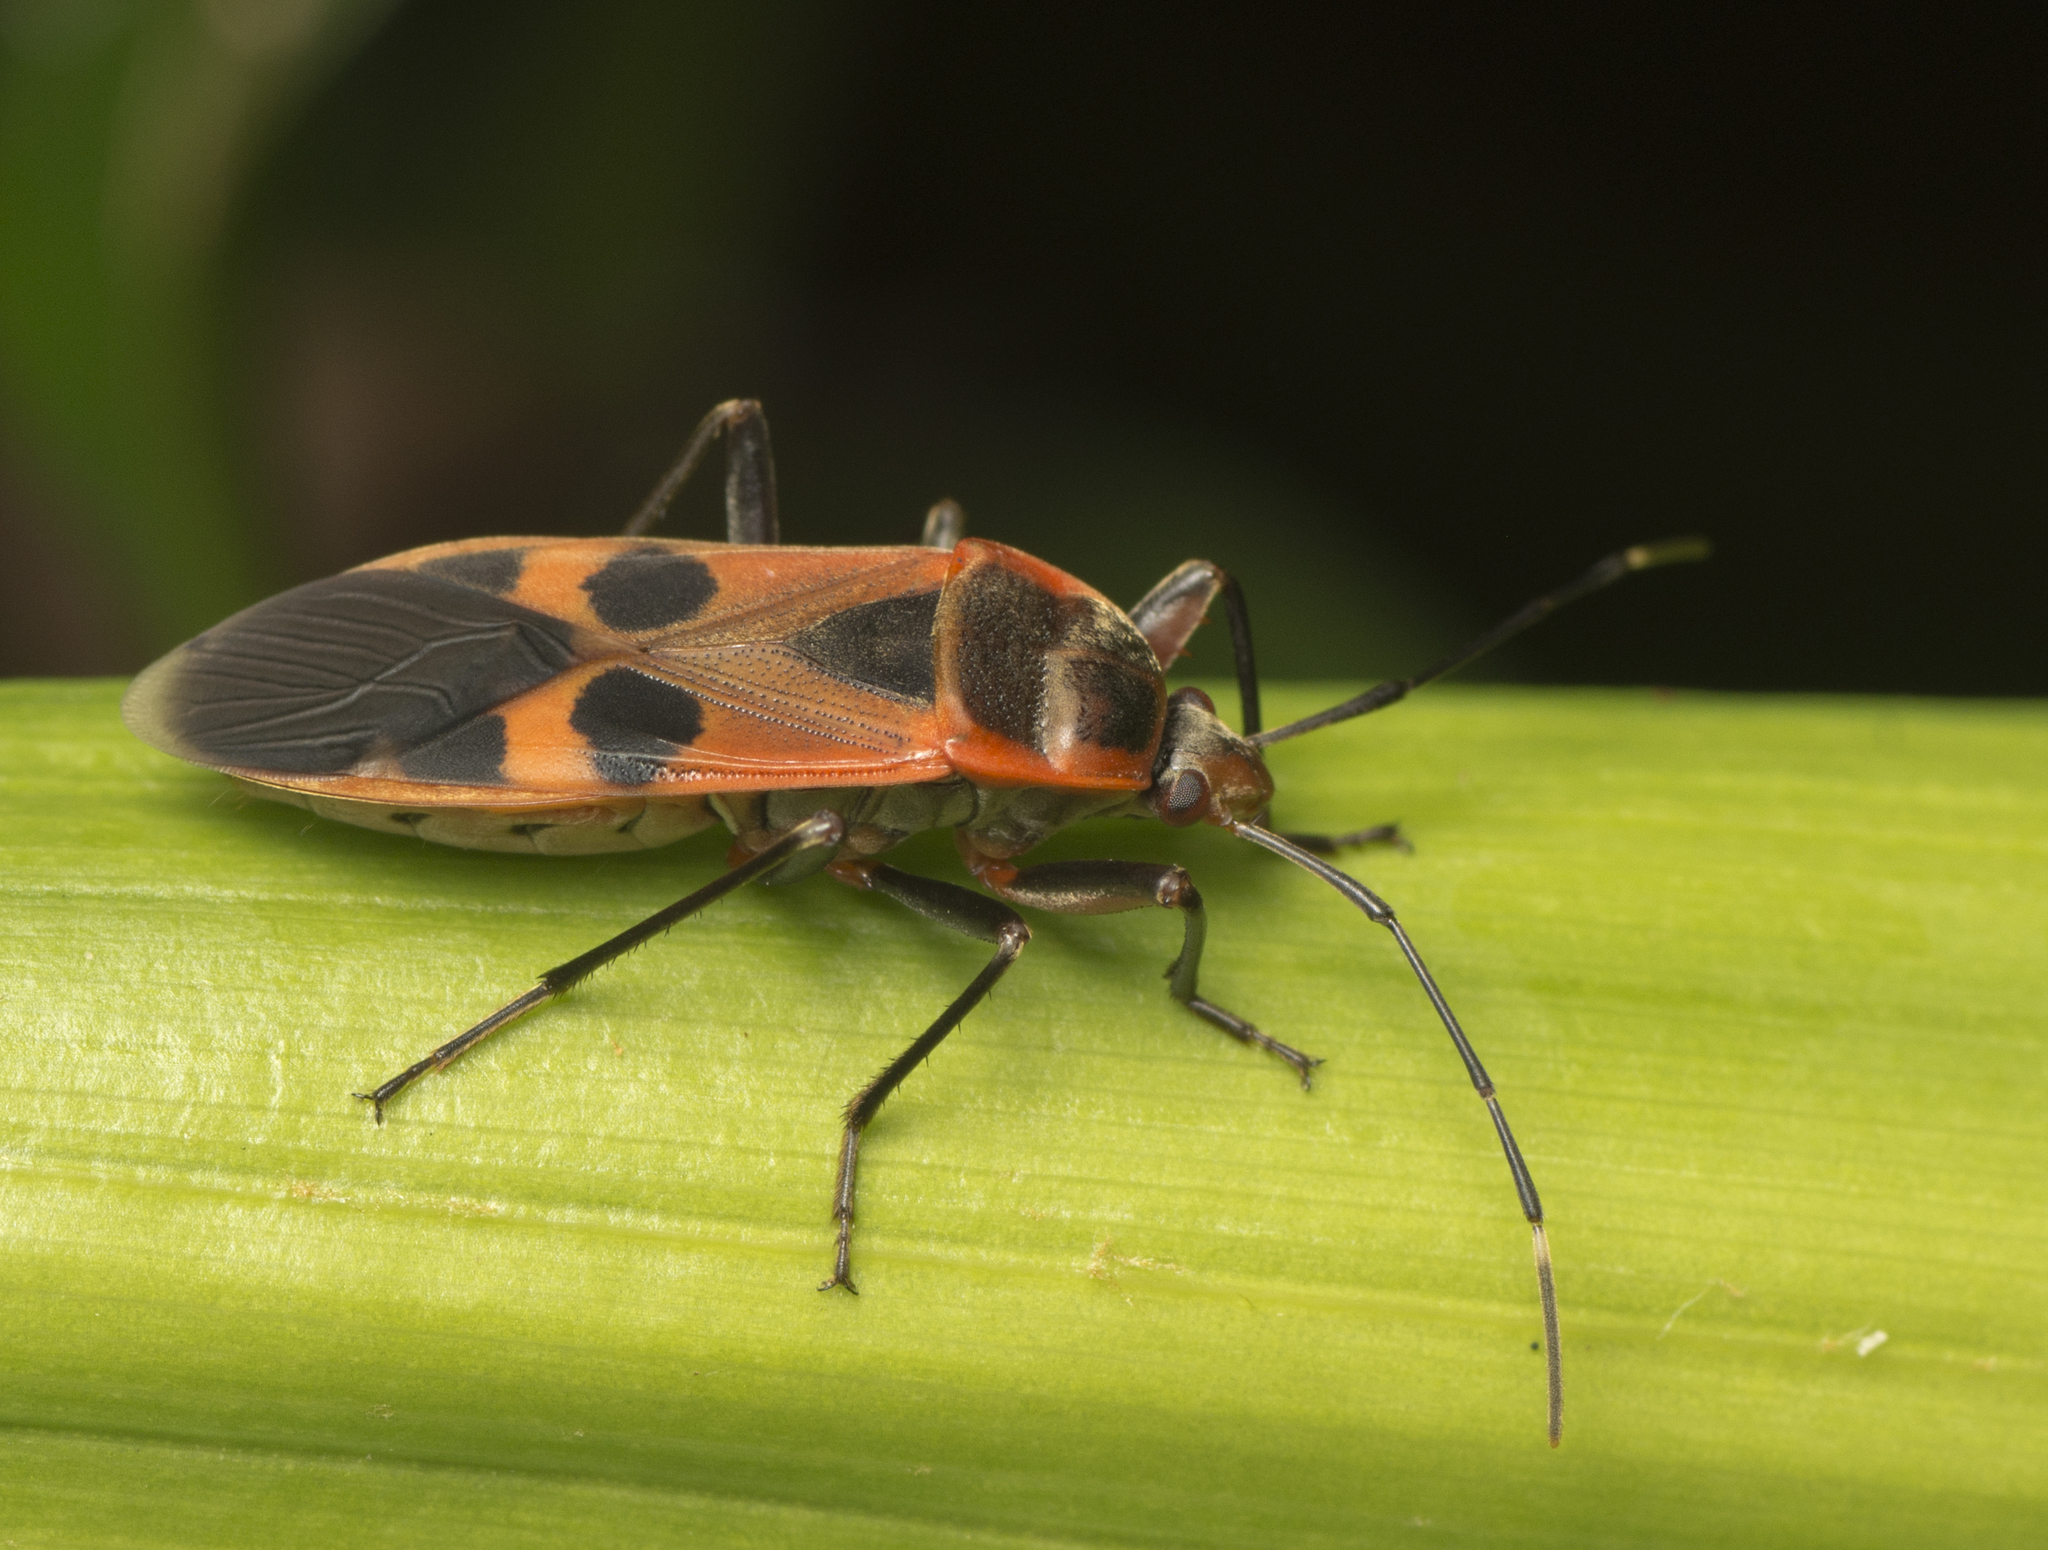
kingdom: Animalia
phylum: Arthropoda
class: Insecta
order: Hemiptera
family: Largidae
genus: Physopelta
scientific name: Physopelta gutta
